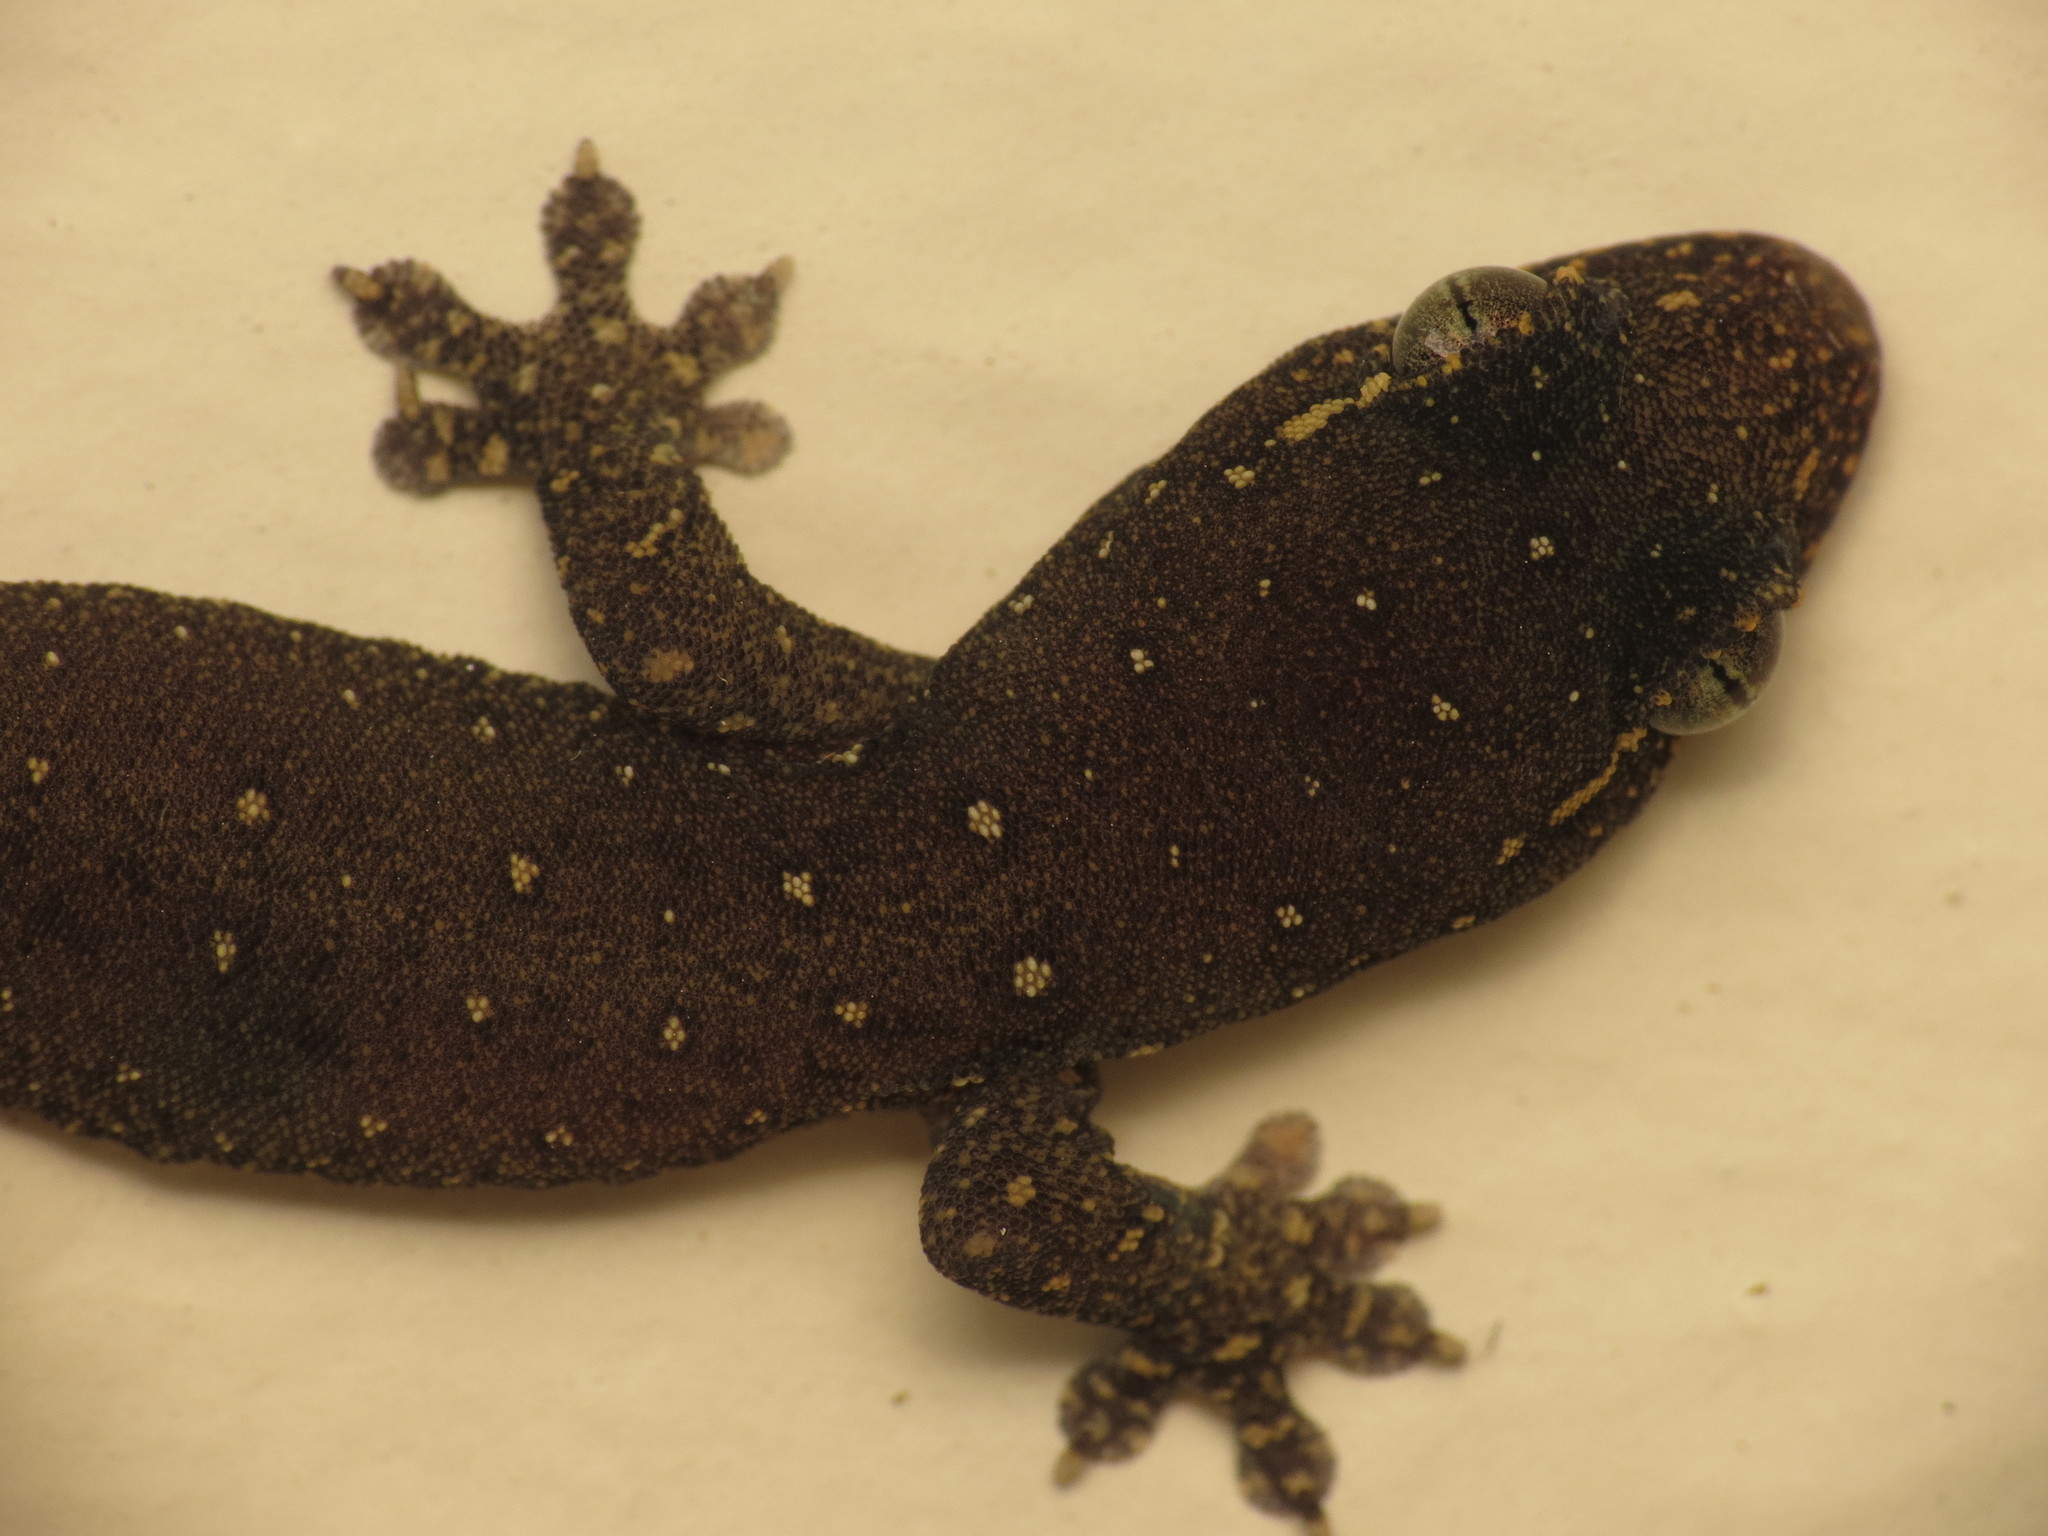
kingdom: Animalia
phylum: Chordata
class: Squamata
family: Gekkonidae
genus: Gehyra
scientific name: Gehyra mutilata
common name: Stump-toed gecko
